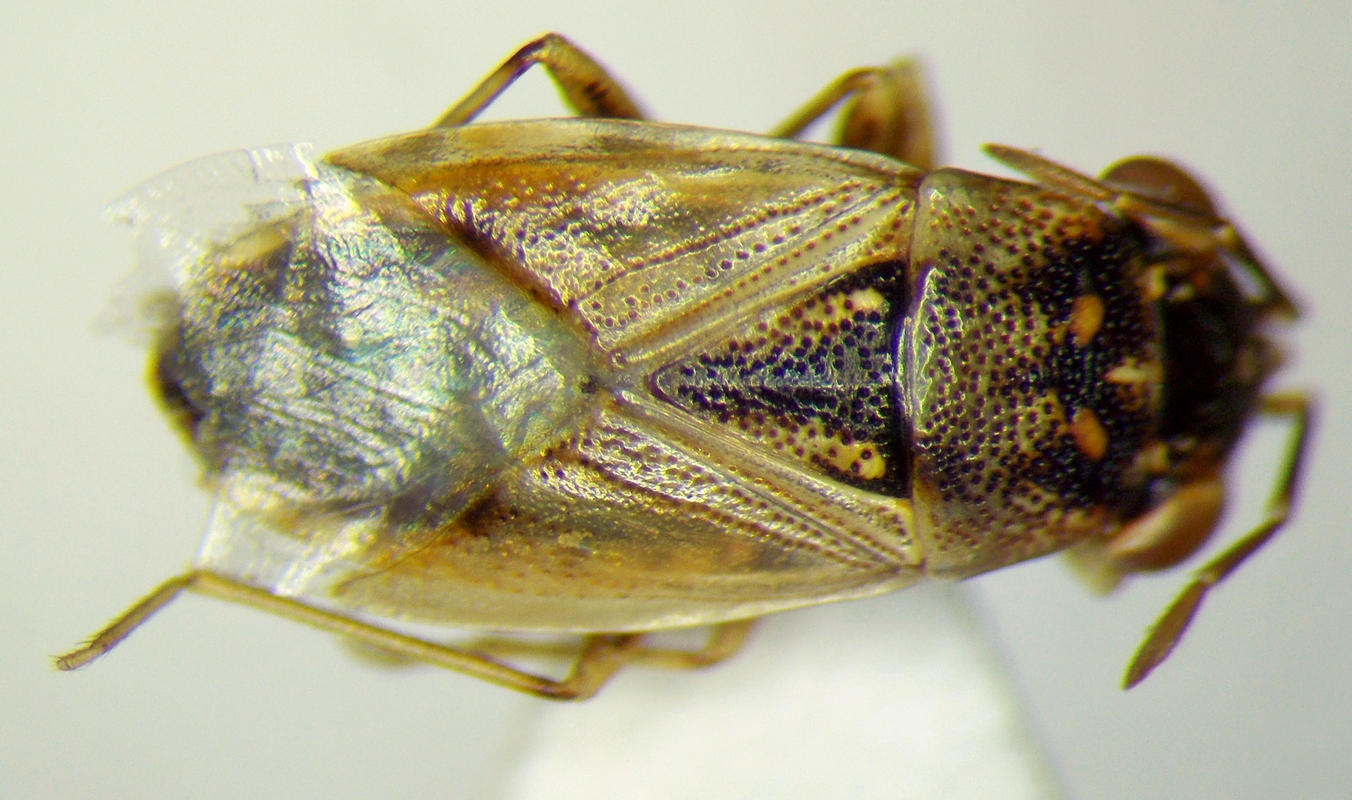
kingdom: Animalia
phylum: Arthropoda
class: Insecta
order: Hemiptera
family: Geocoridae
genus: Geocoris
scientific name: Geocoris pallens
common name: Big-eyed bug
